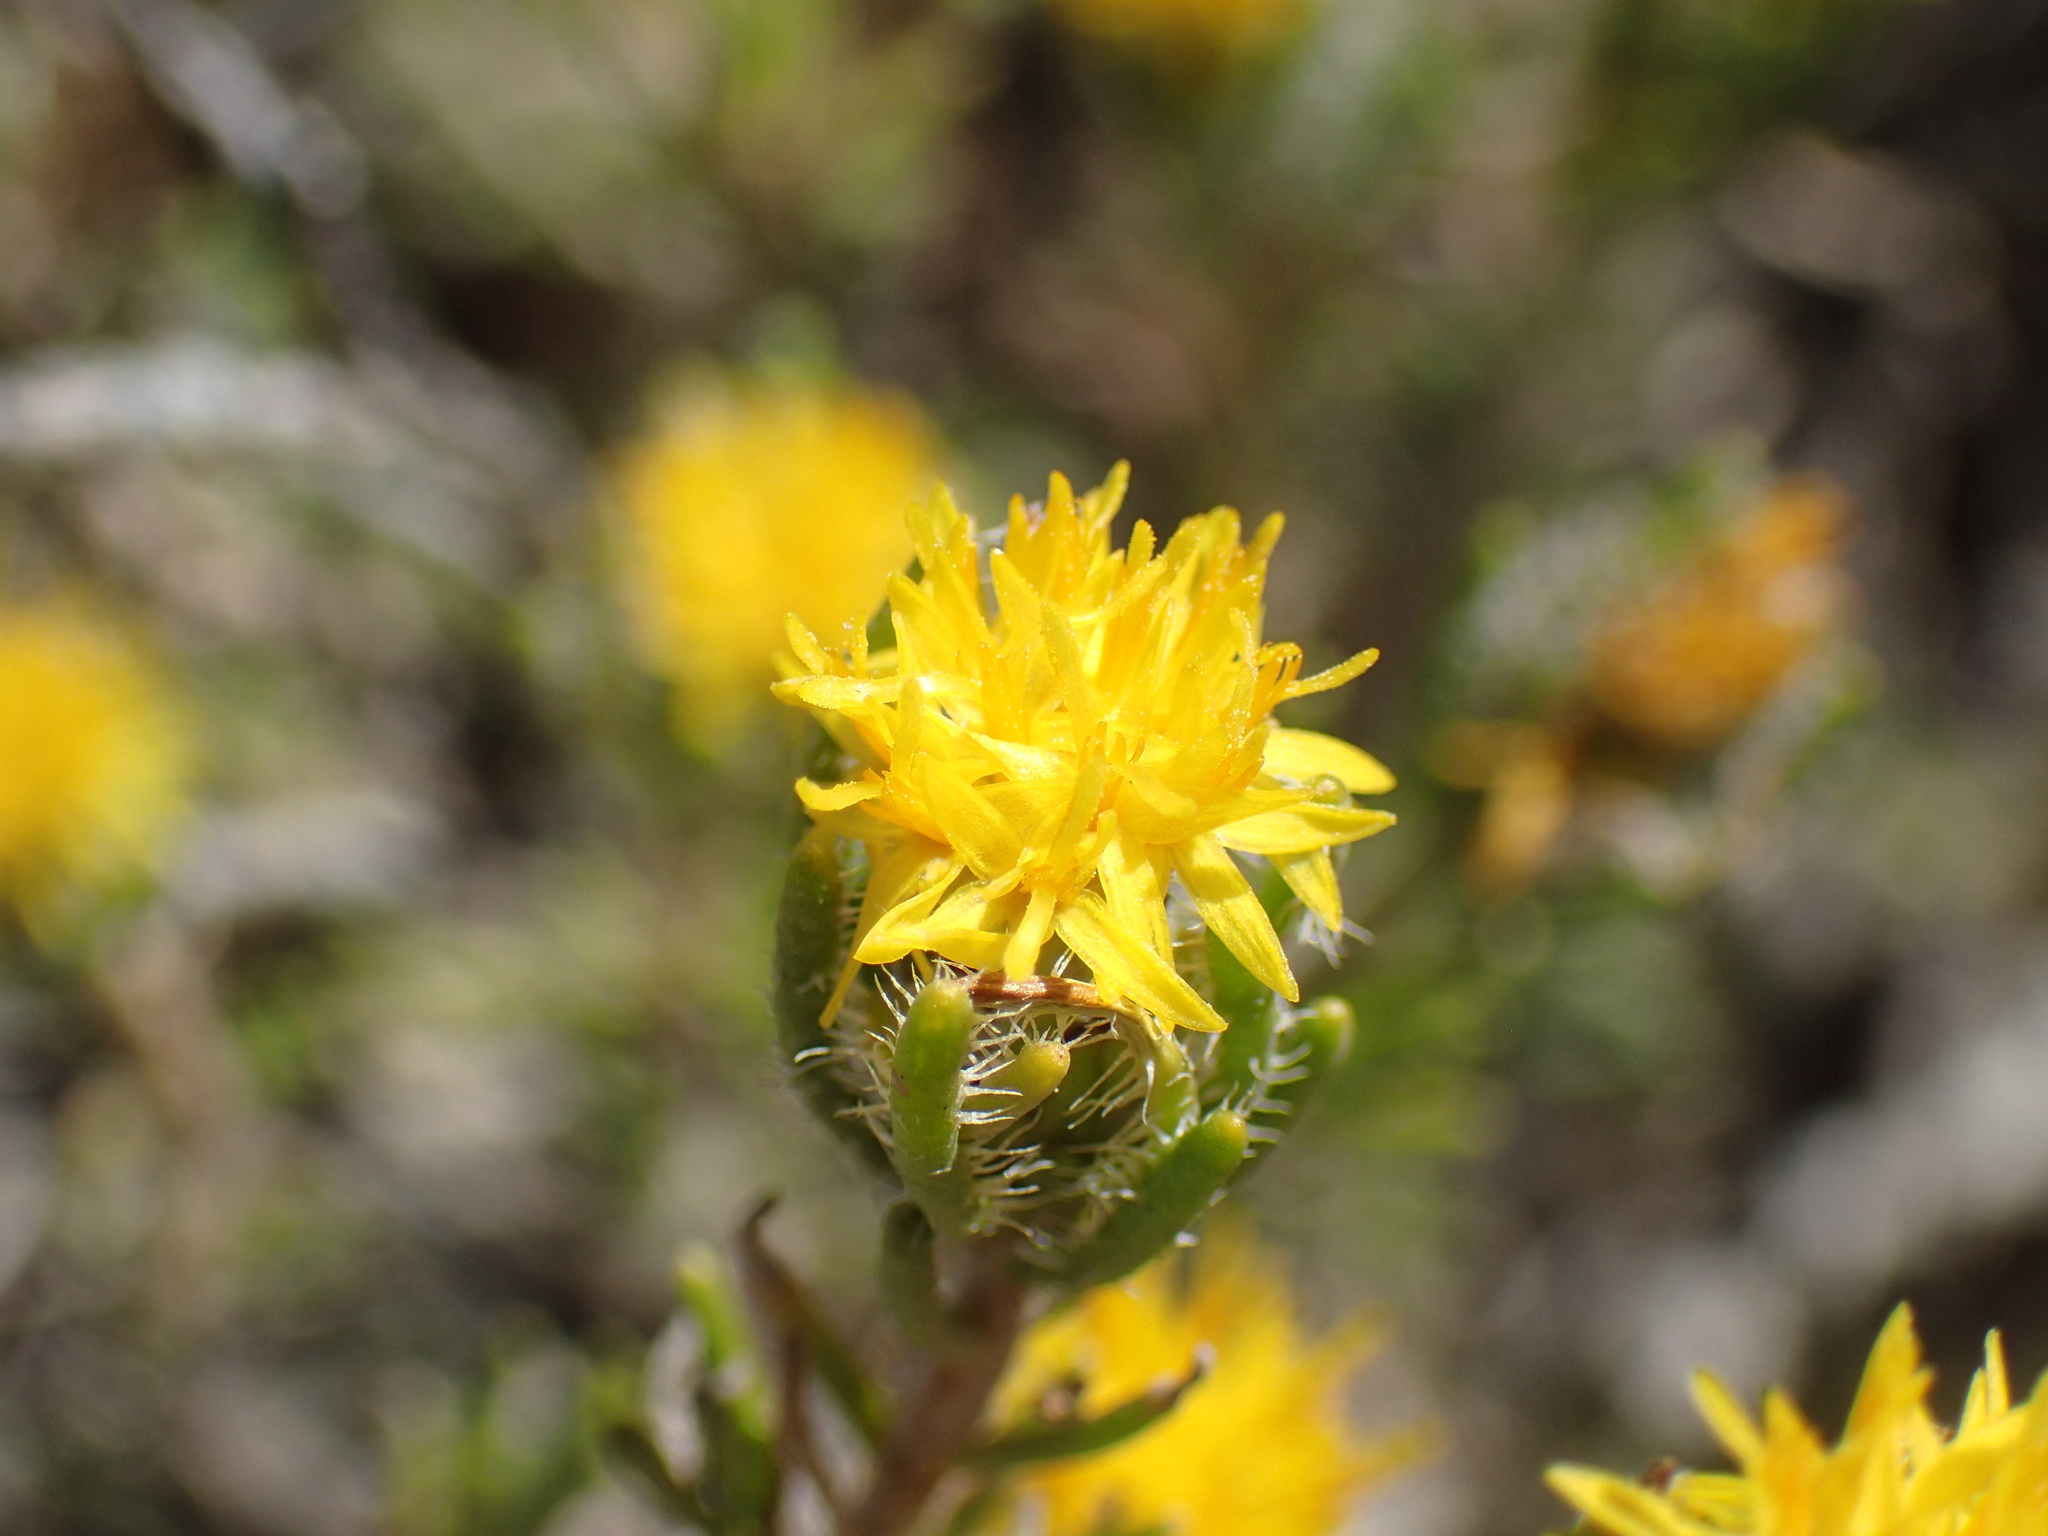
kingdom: Plantae
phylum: Tracheophyta
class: Magnoliopsida
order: Asterales
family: Asteraceae
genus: Pteronia
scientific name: Pteronia pomonae
